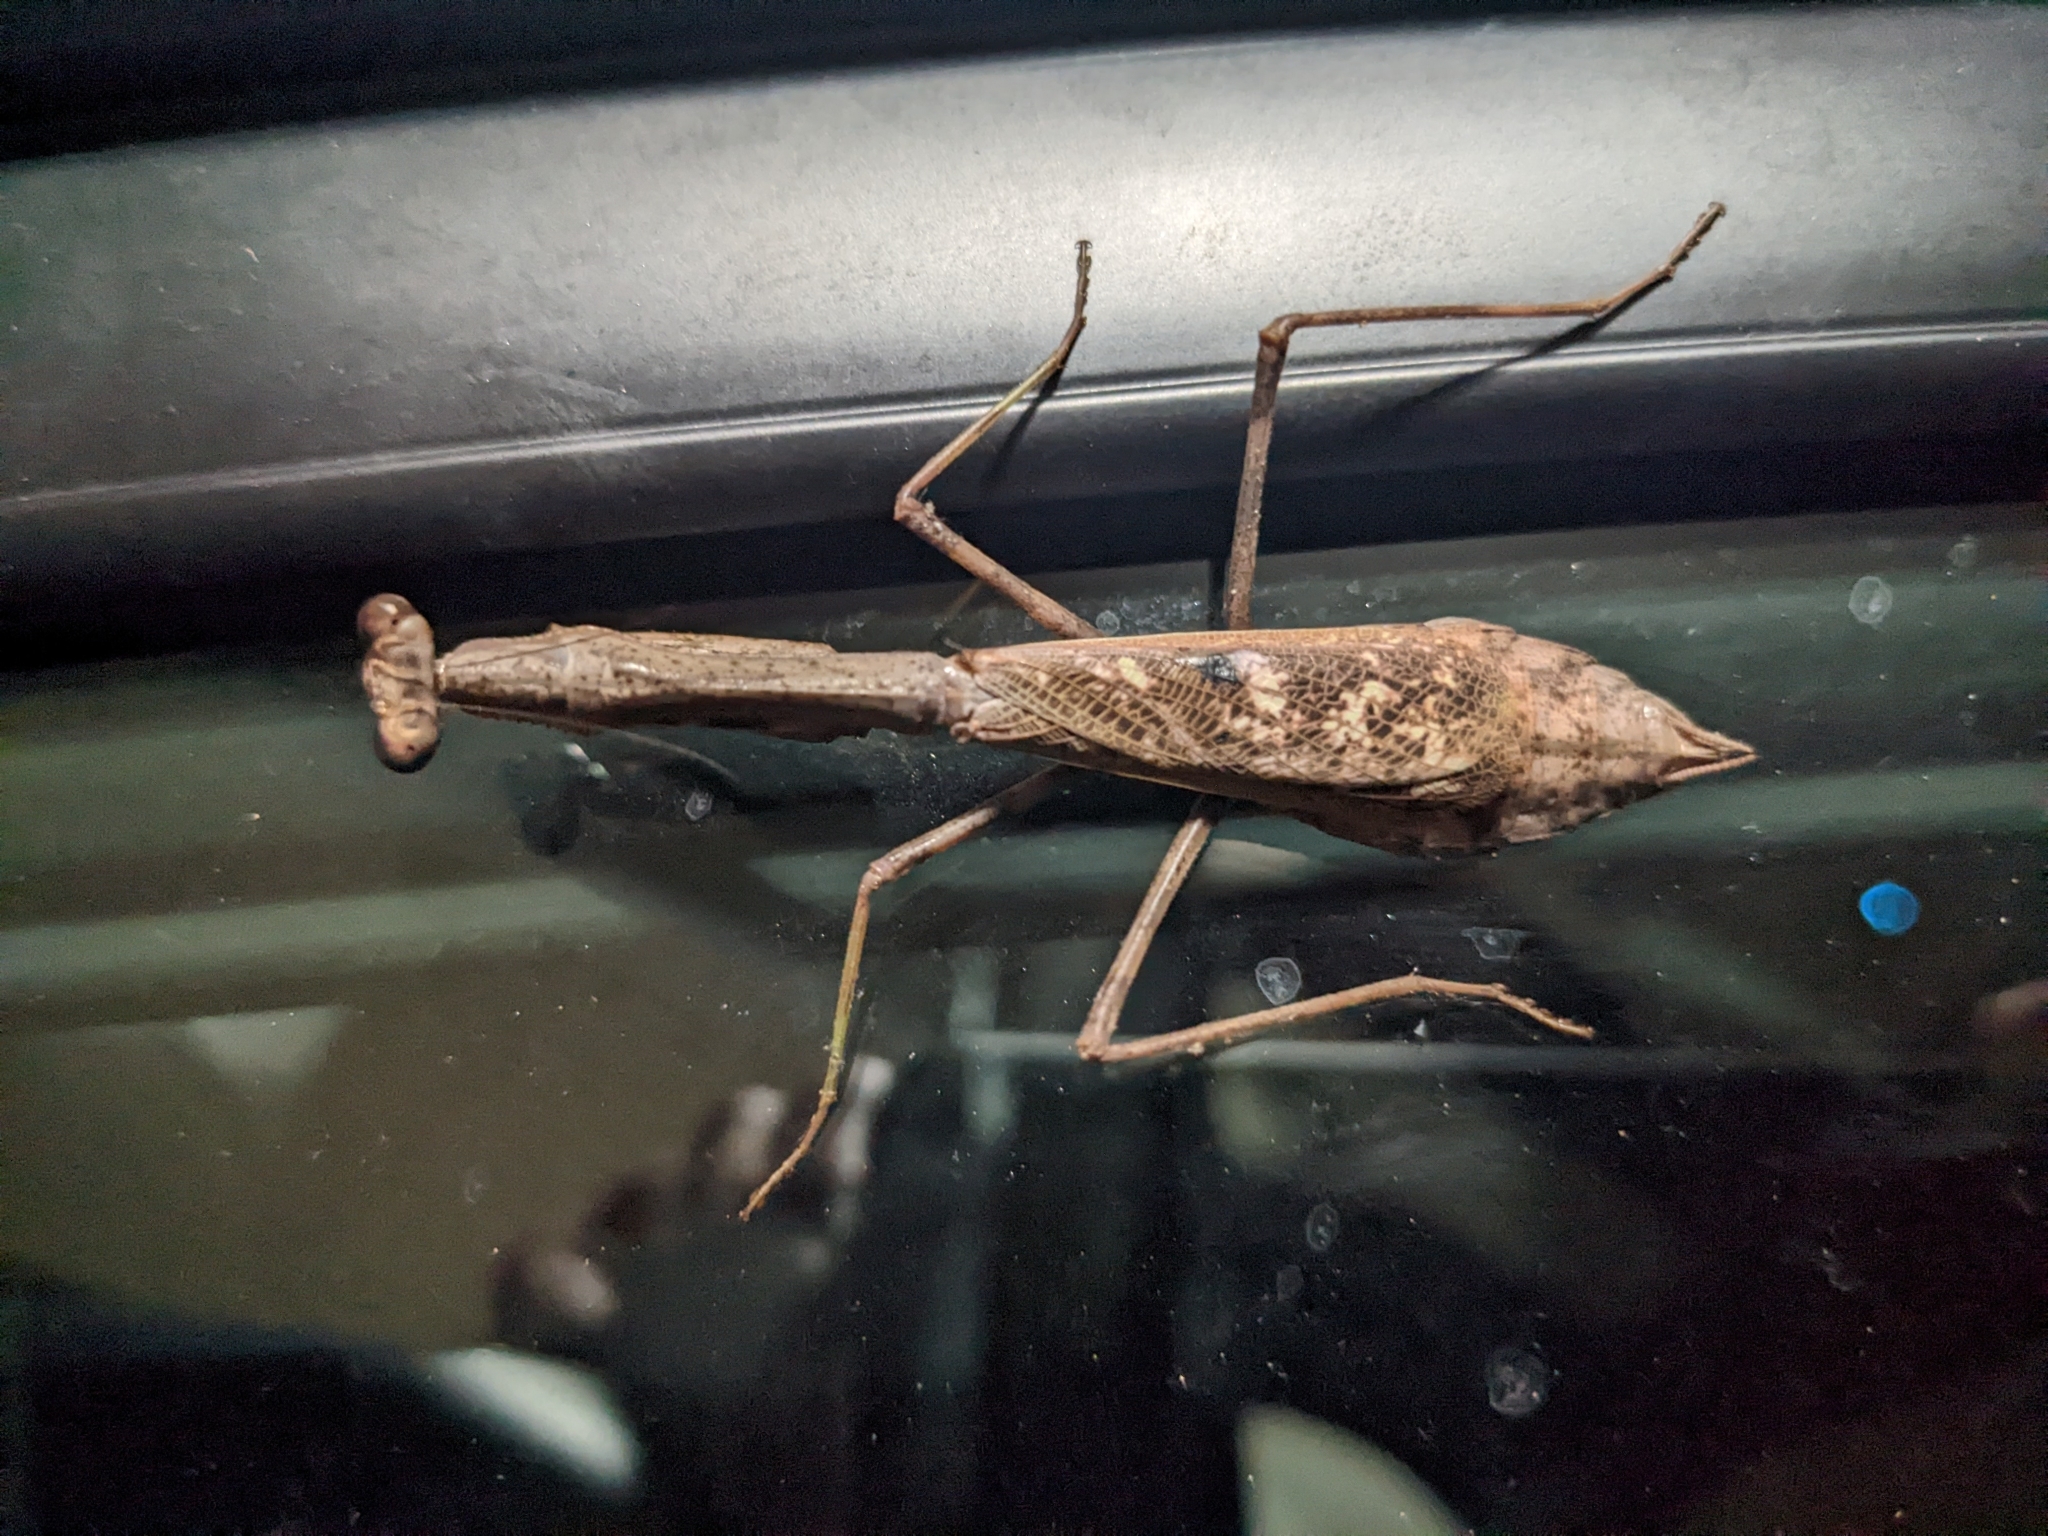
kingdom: Animalia
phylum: Arthropoda
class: Insecta
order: Mantodea
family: Mantidae
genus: Stagmomantis
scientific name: Stagmomantis carolina
